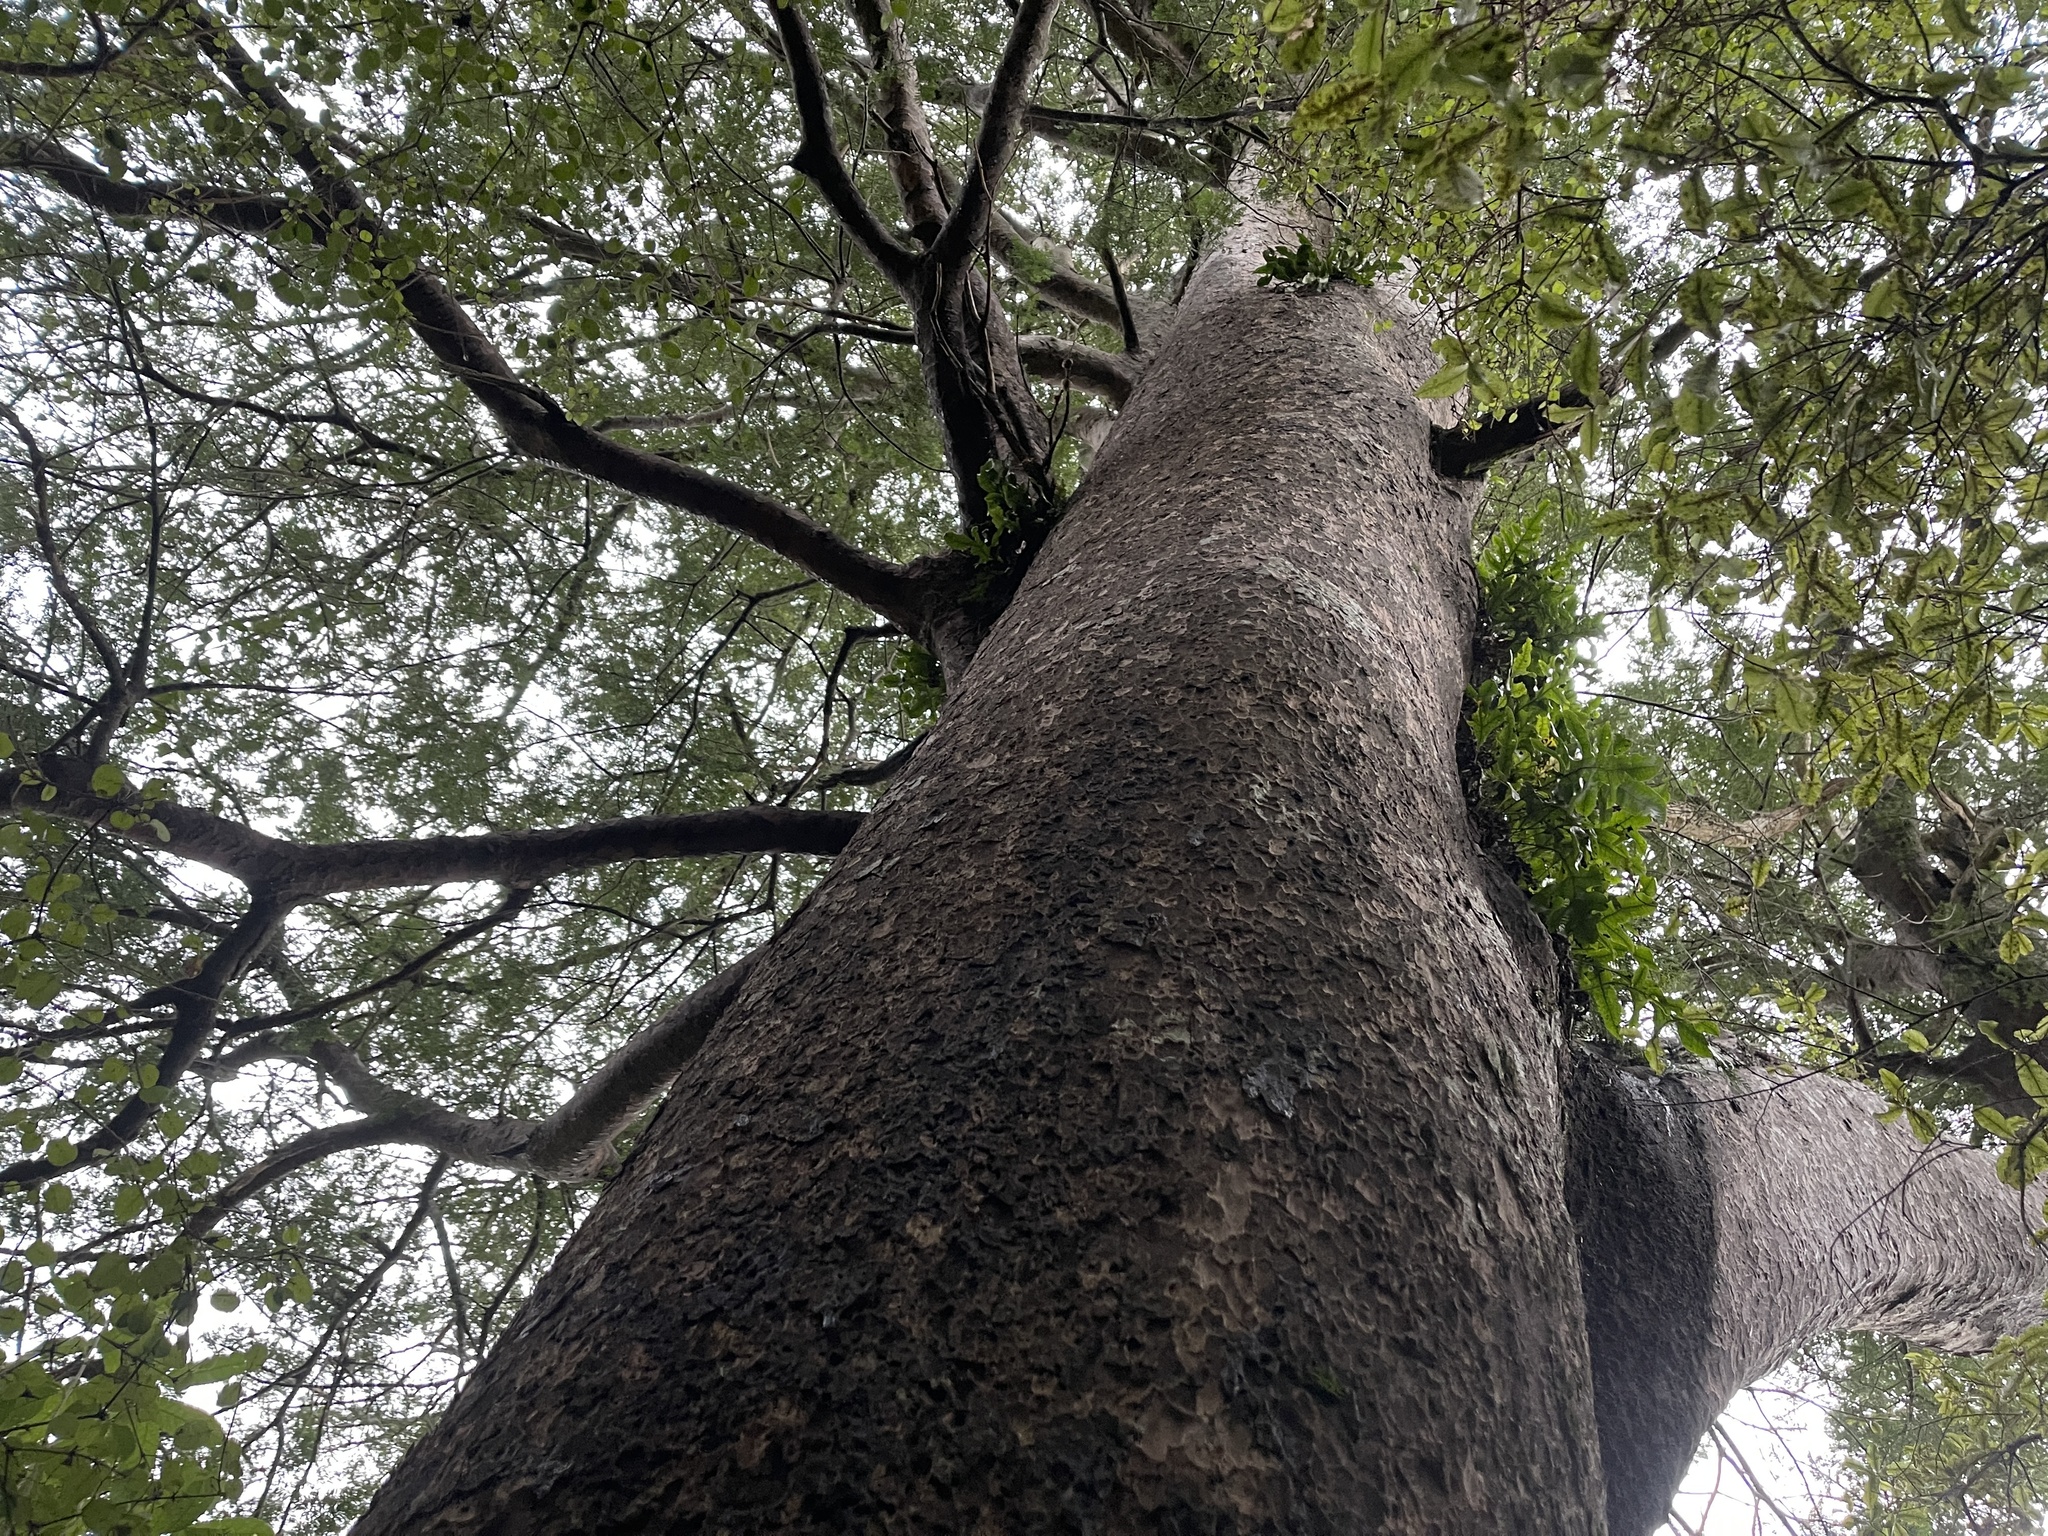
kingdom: Plantae
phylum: Tracheophyta
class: Pinopsida
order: Pinales
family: Podocarpaceae
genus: Prumnopitys
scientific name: Prumnopitys taxifolia
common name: Matai
